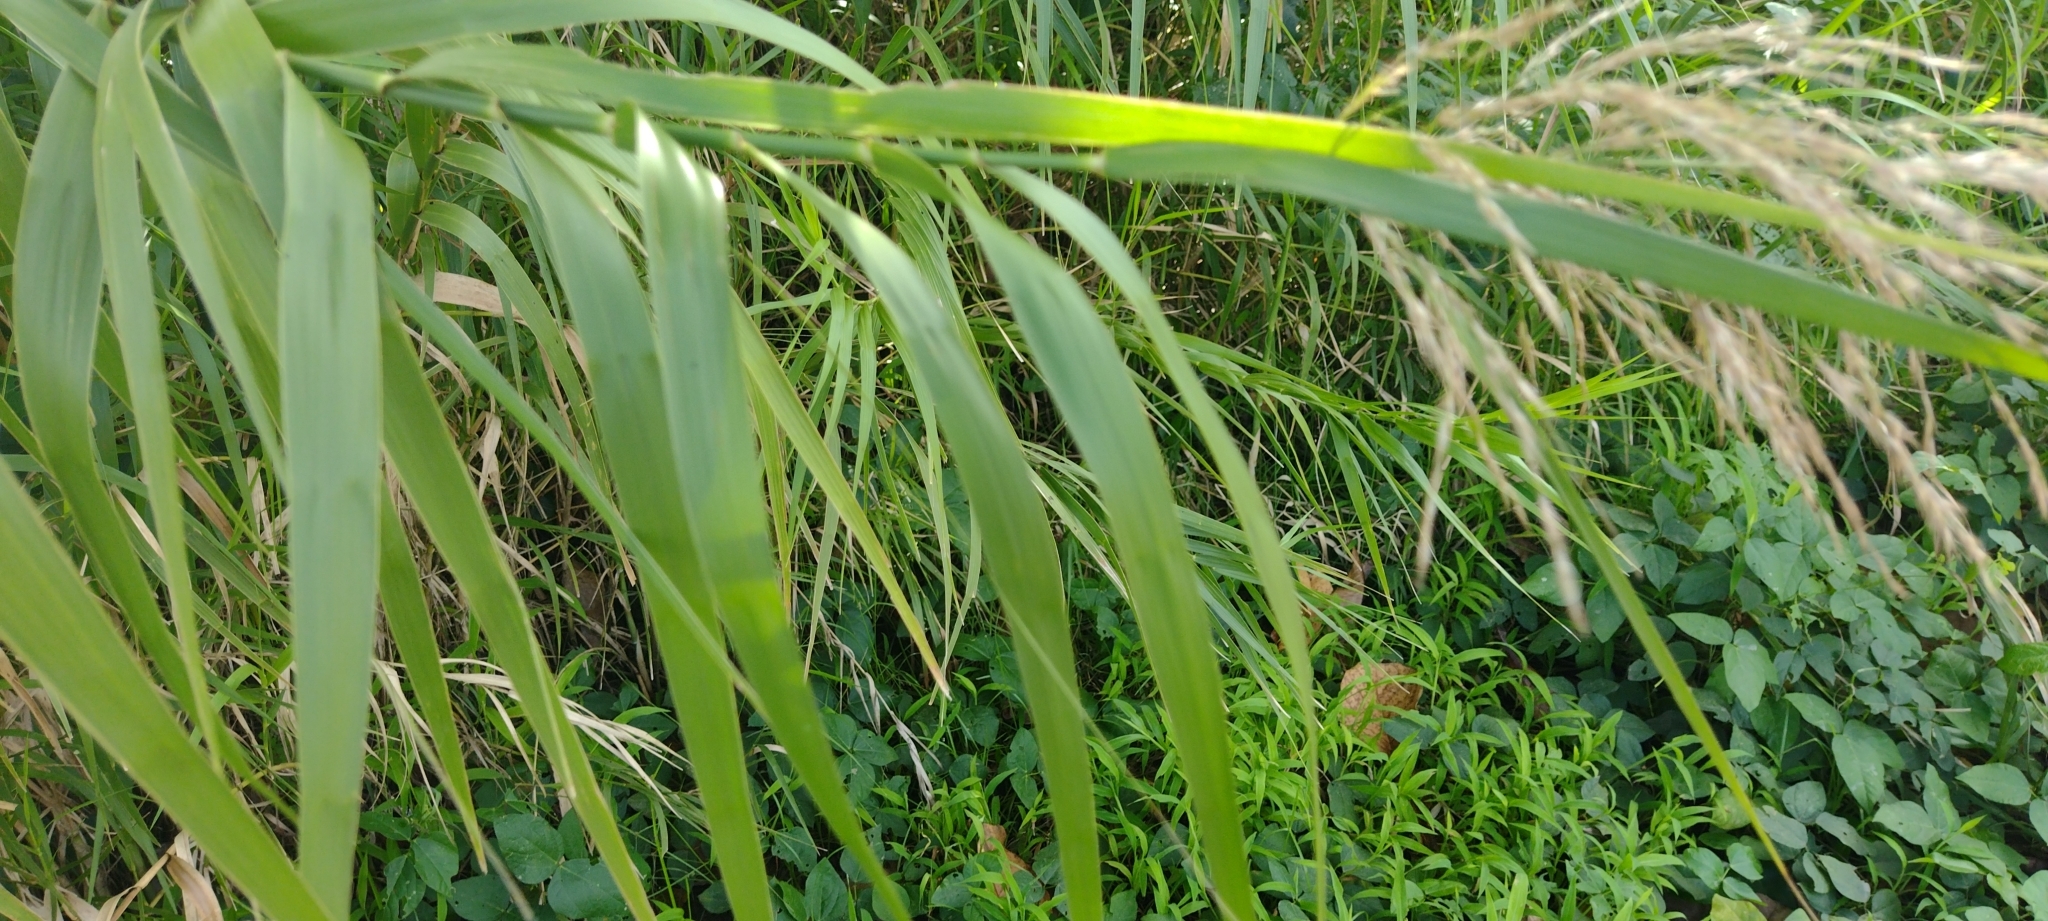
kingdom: Plantae
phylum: Tracheophyta
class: Liliopsida
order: Poales
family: Poaceae
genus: Phragmites
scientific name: Phragmites karka
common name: Tropical reed
